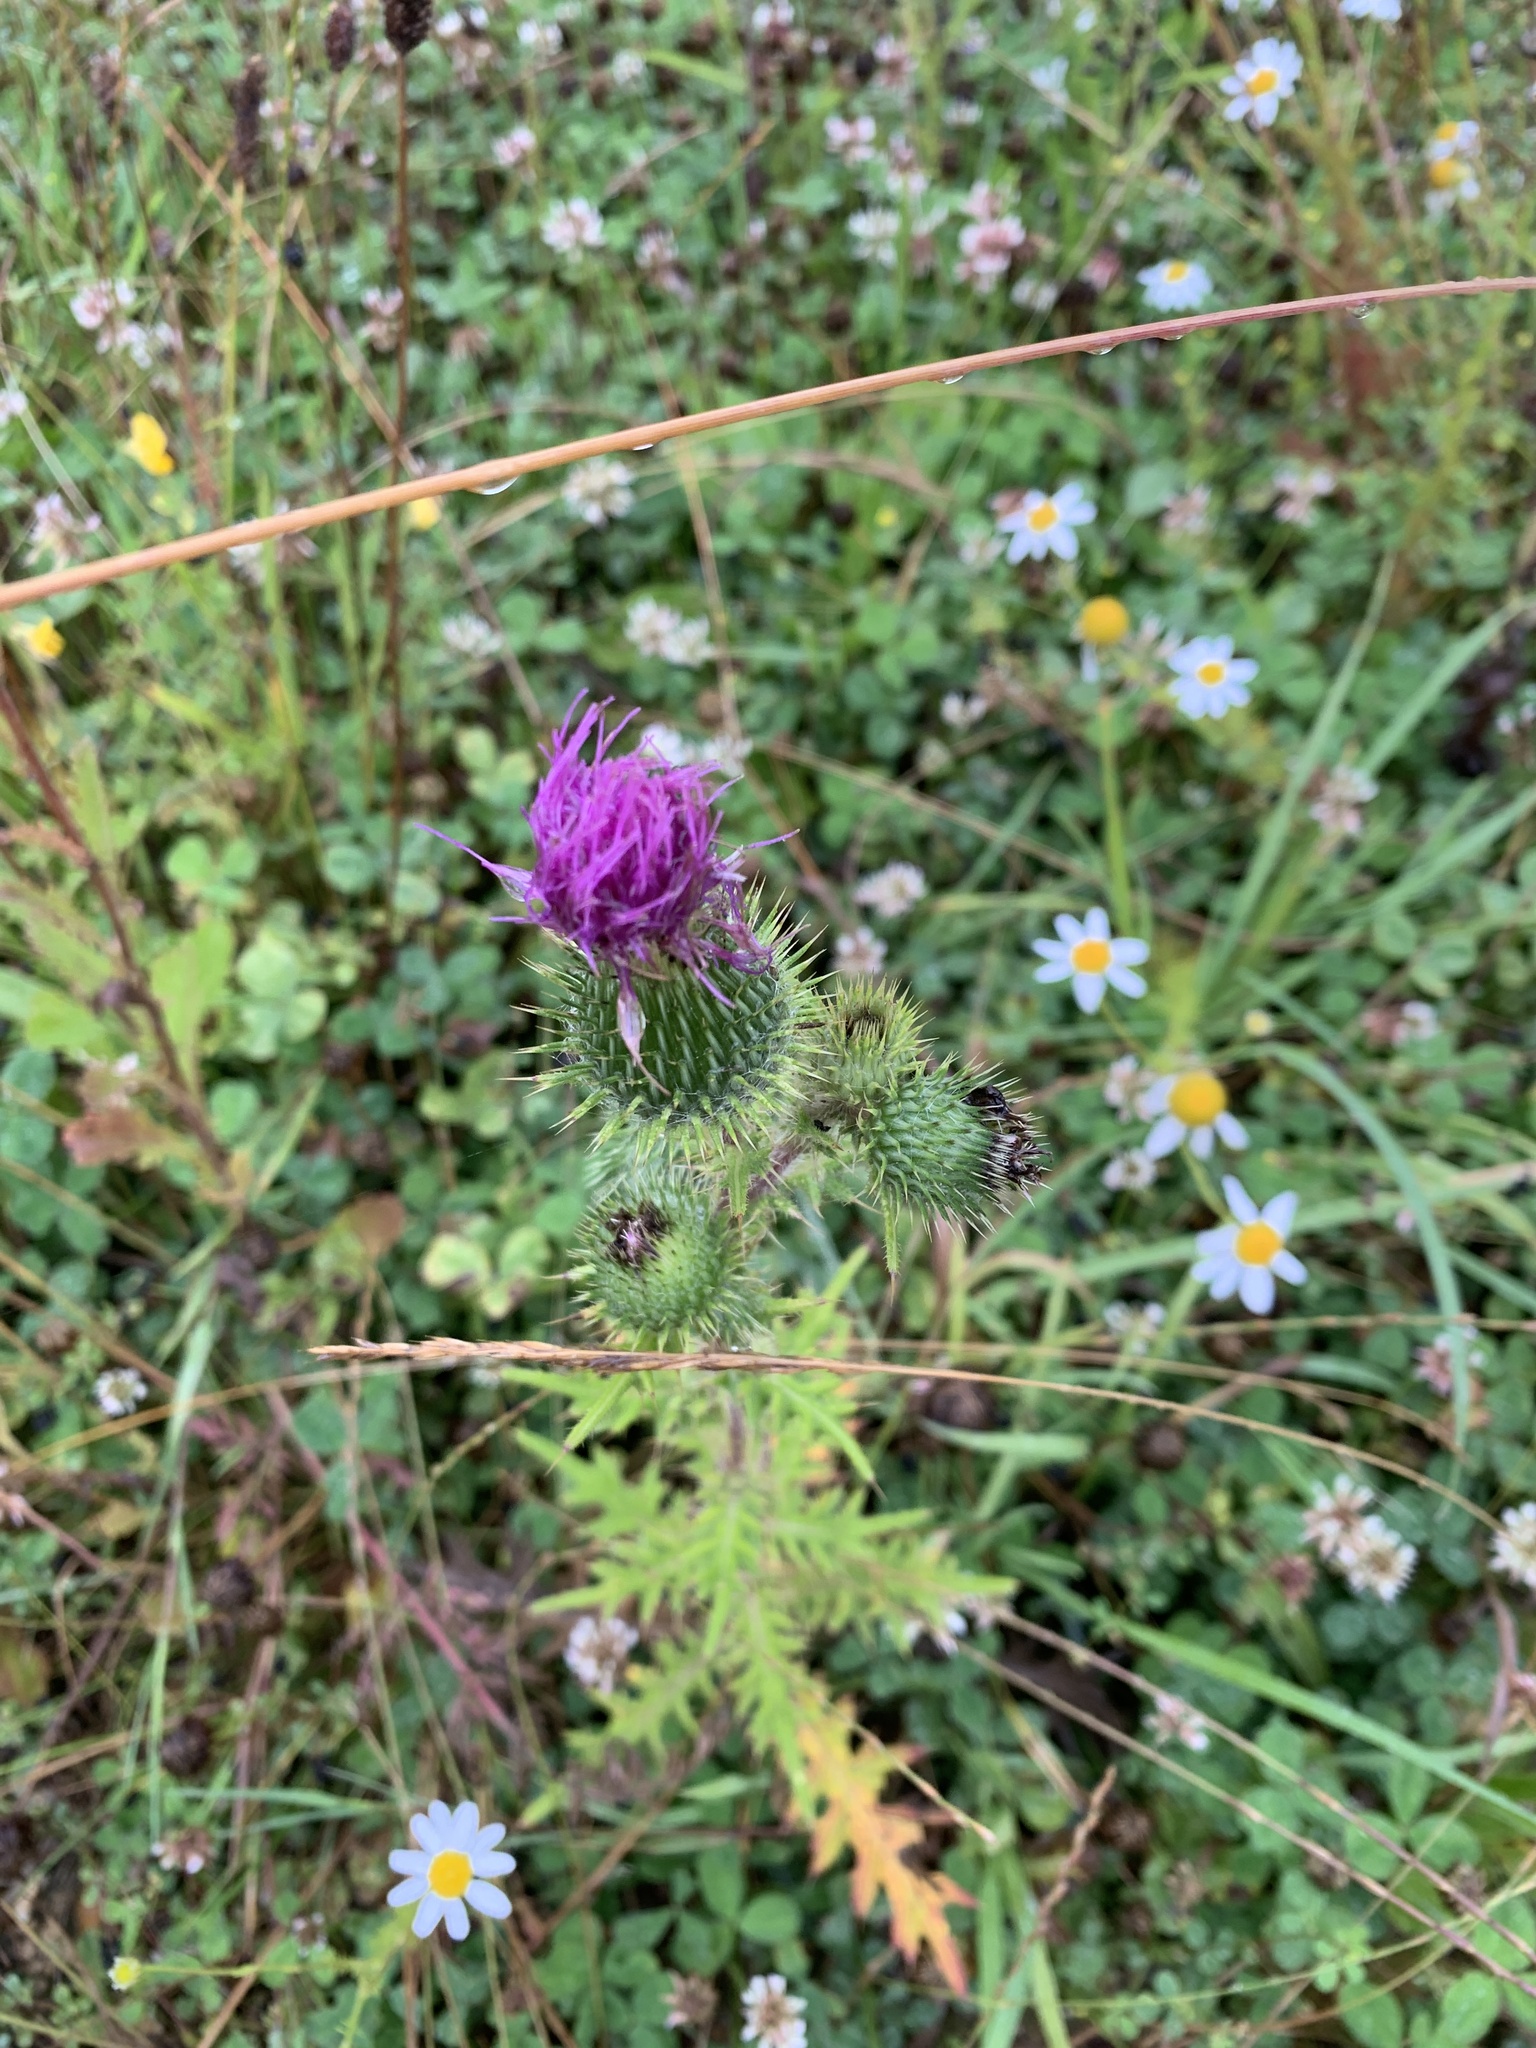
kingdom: Plantae
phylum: Tracheophyta
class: Magnoliopsida
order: Asterales
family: Asteraceae
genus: Cirsium
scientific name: Cirsium vulgare
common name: Bull thistle
